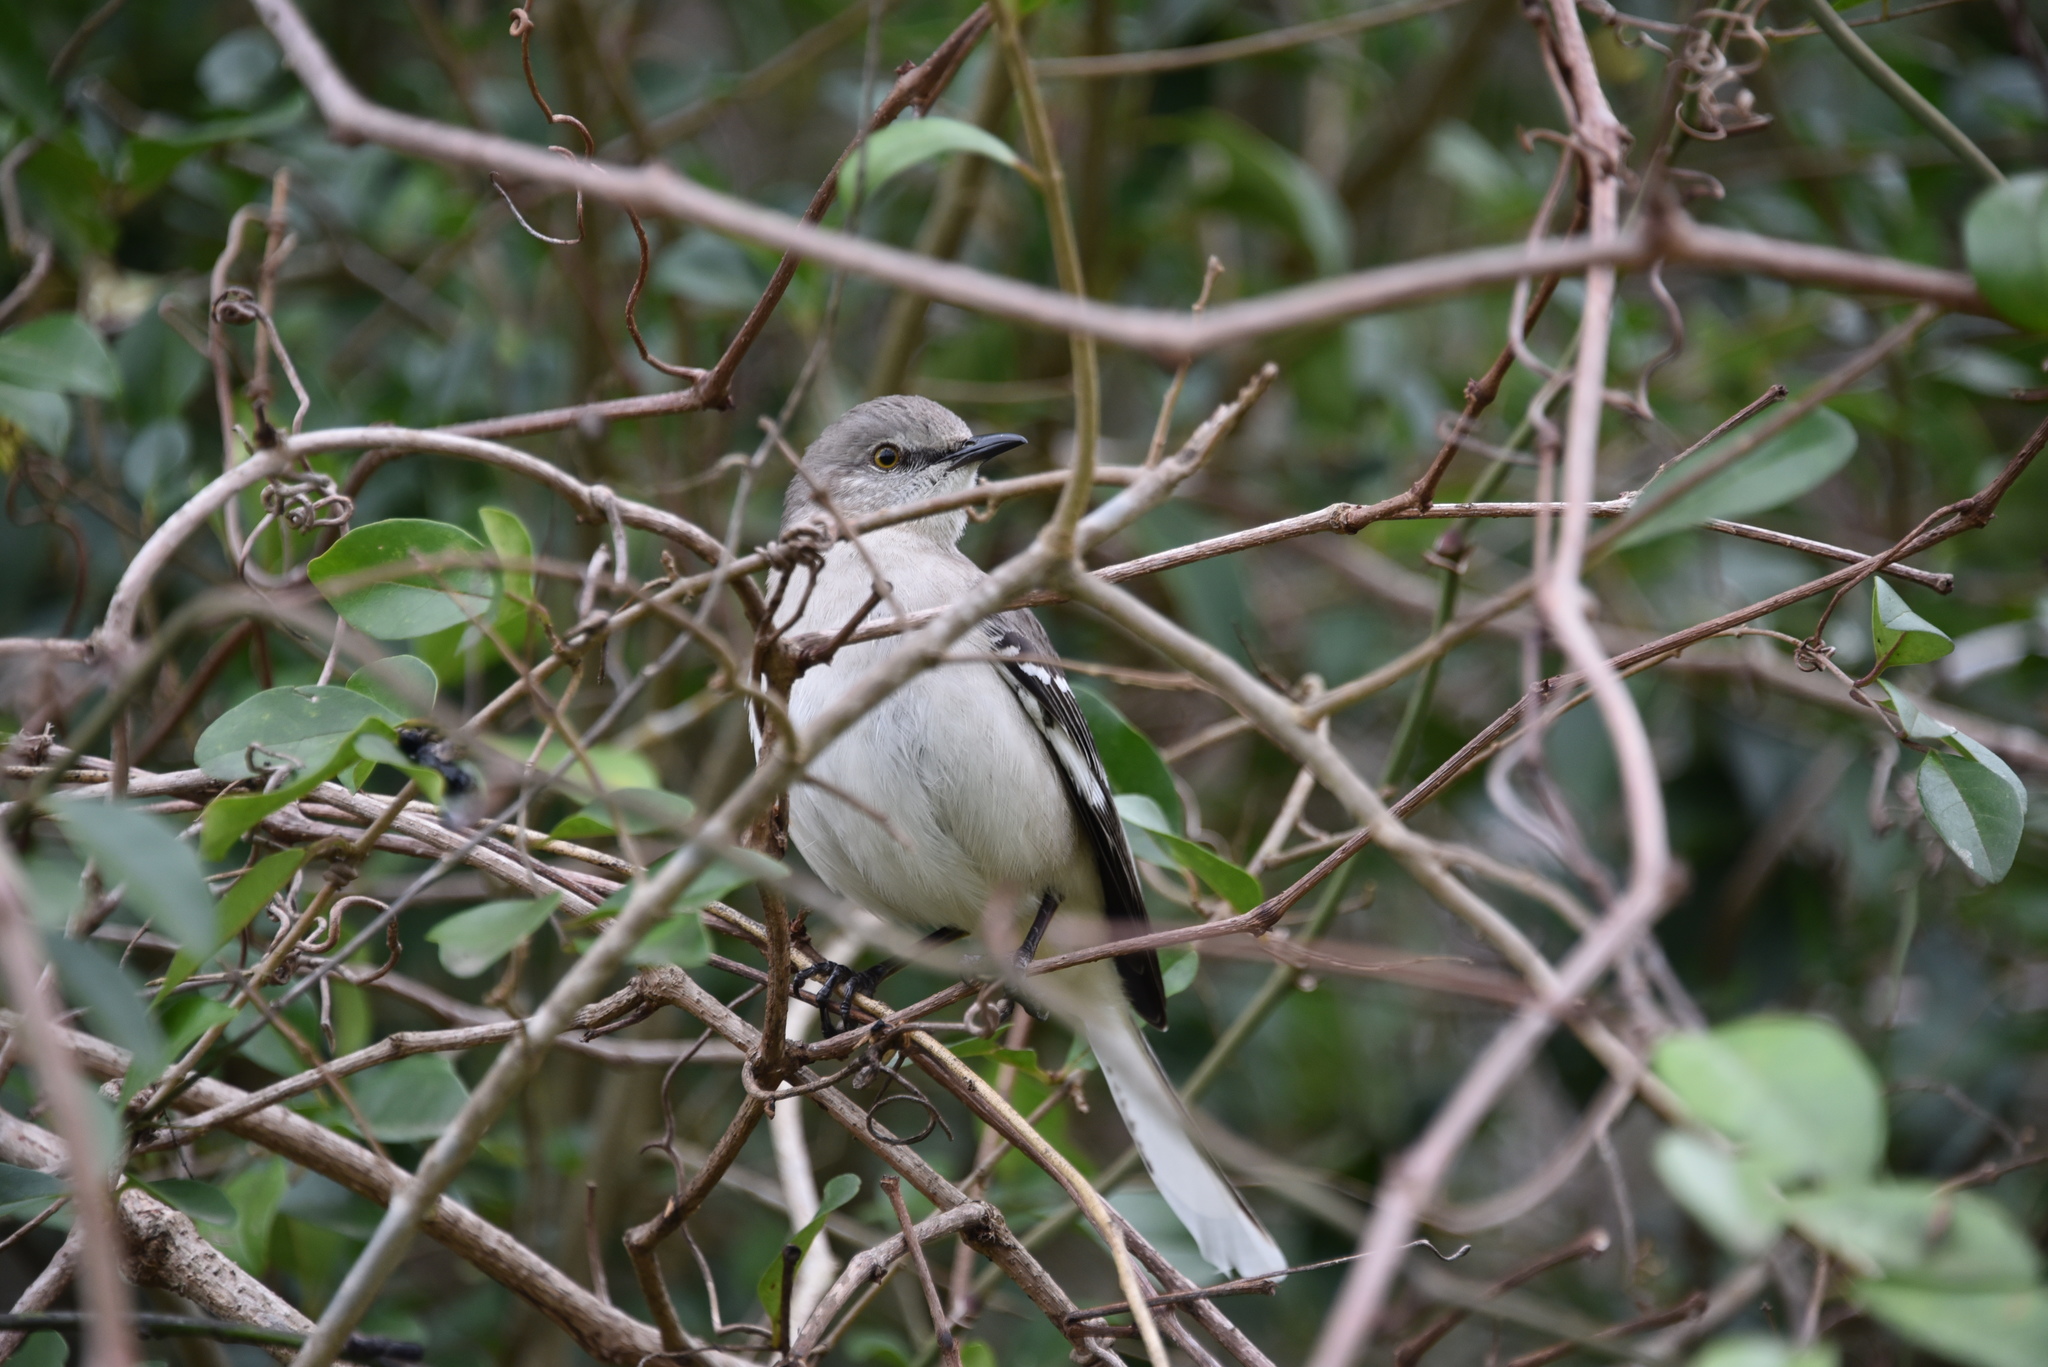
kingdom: Animalia
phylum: Chordata
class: Aves
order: Passeriformes
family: Mimidae
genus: Mimus
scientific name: Mimus polyglottos
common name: Northern mockingbird
